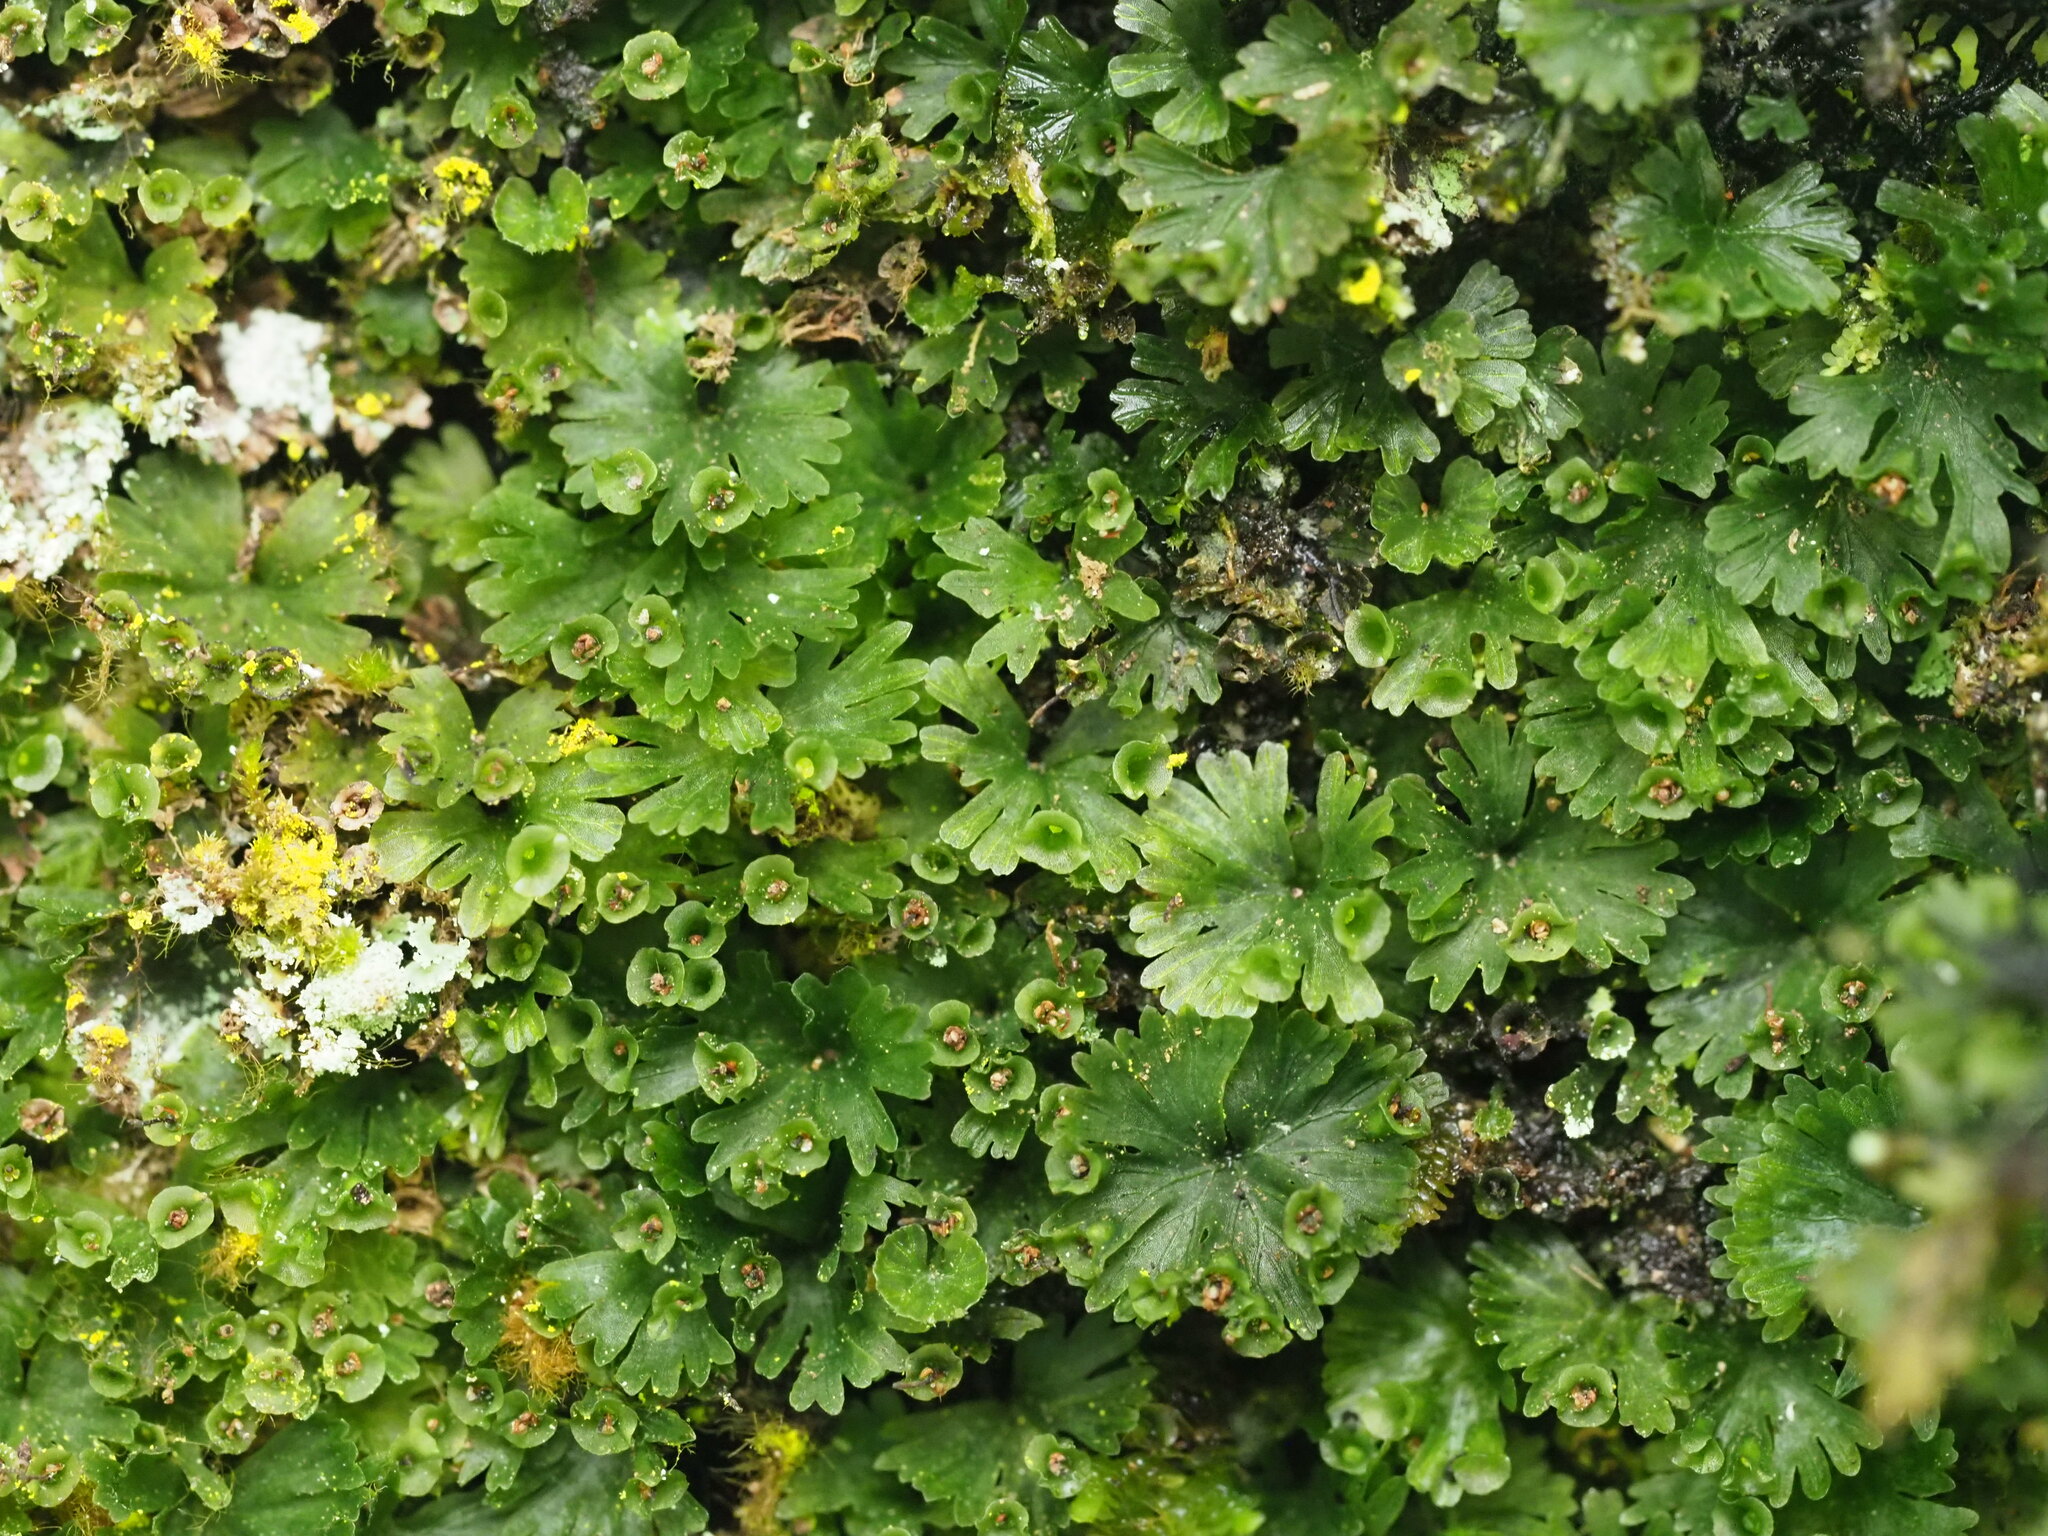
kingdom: Plantae
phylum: Tracheophyta
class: Polypodiopsida
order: Hymenophyllales
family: Hymenophyllaceae
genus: Crepidomanes
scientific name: Crepidomanes parvulum
